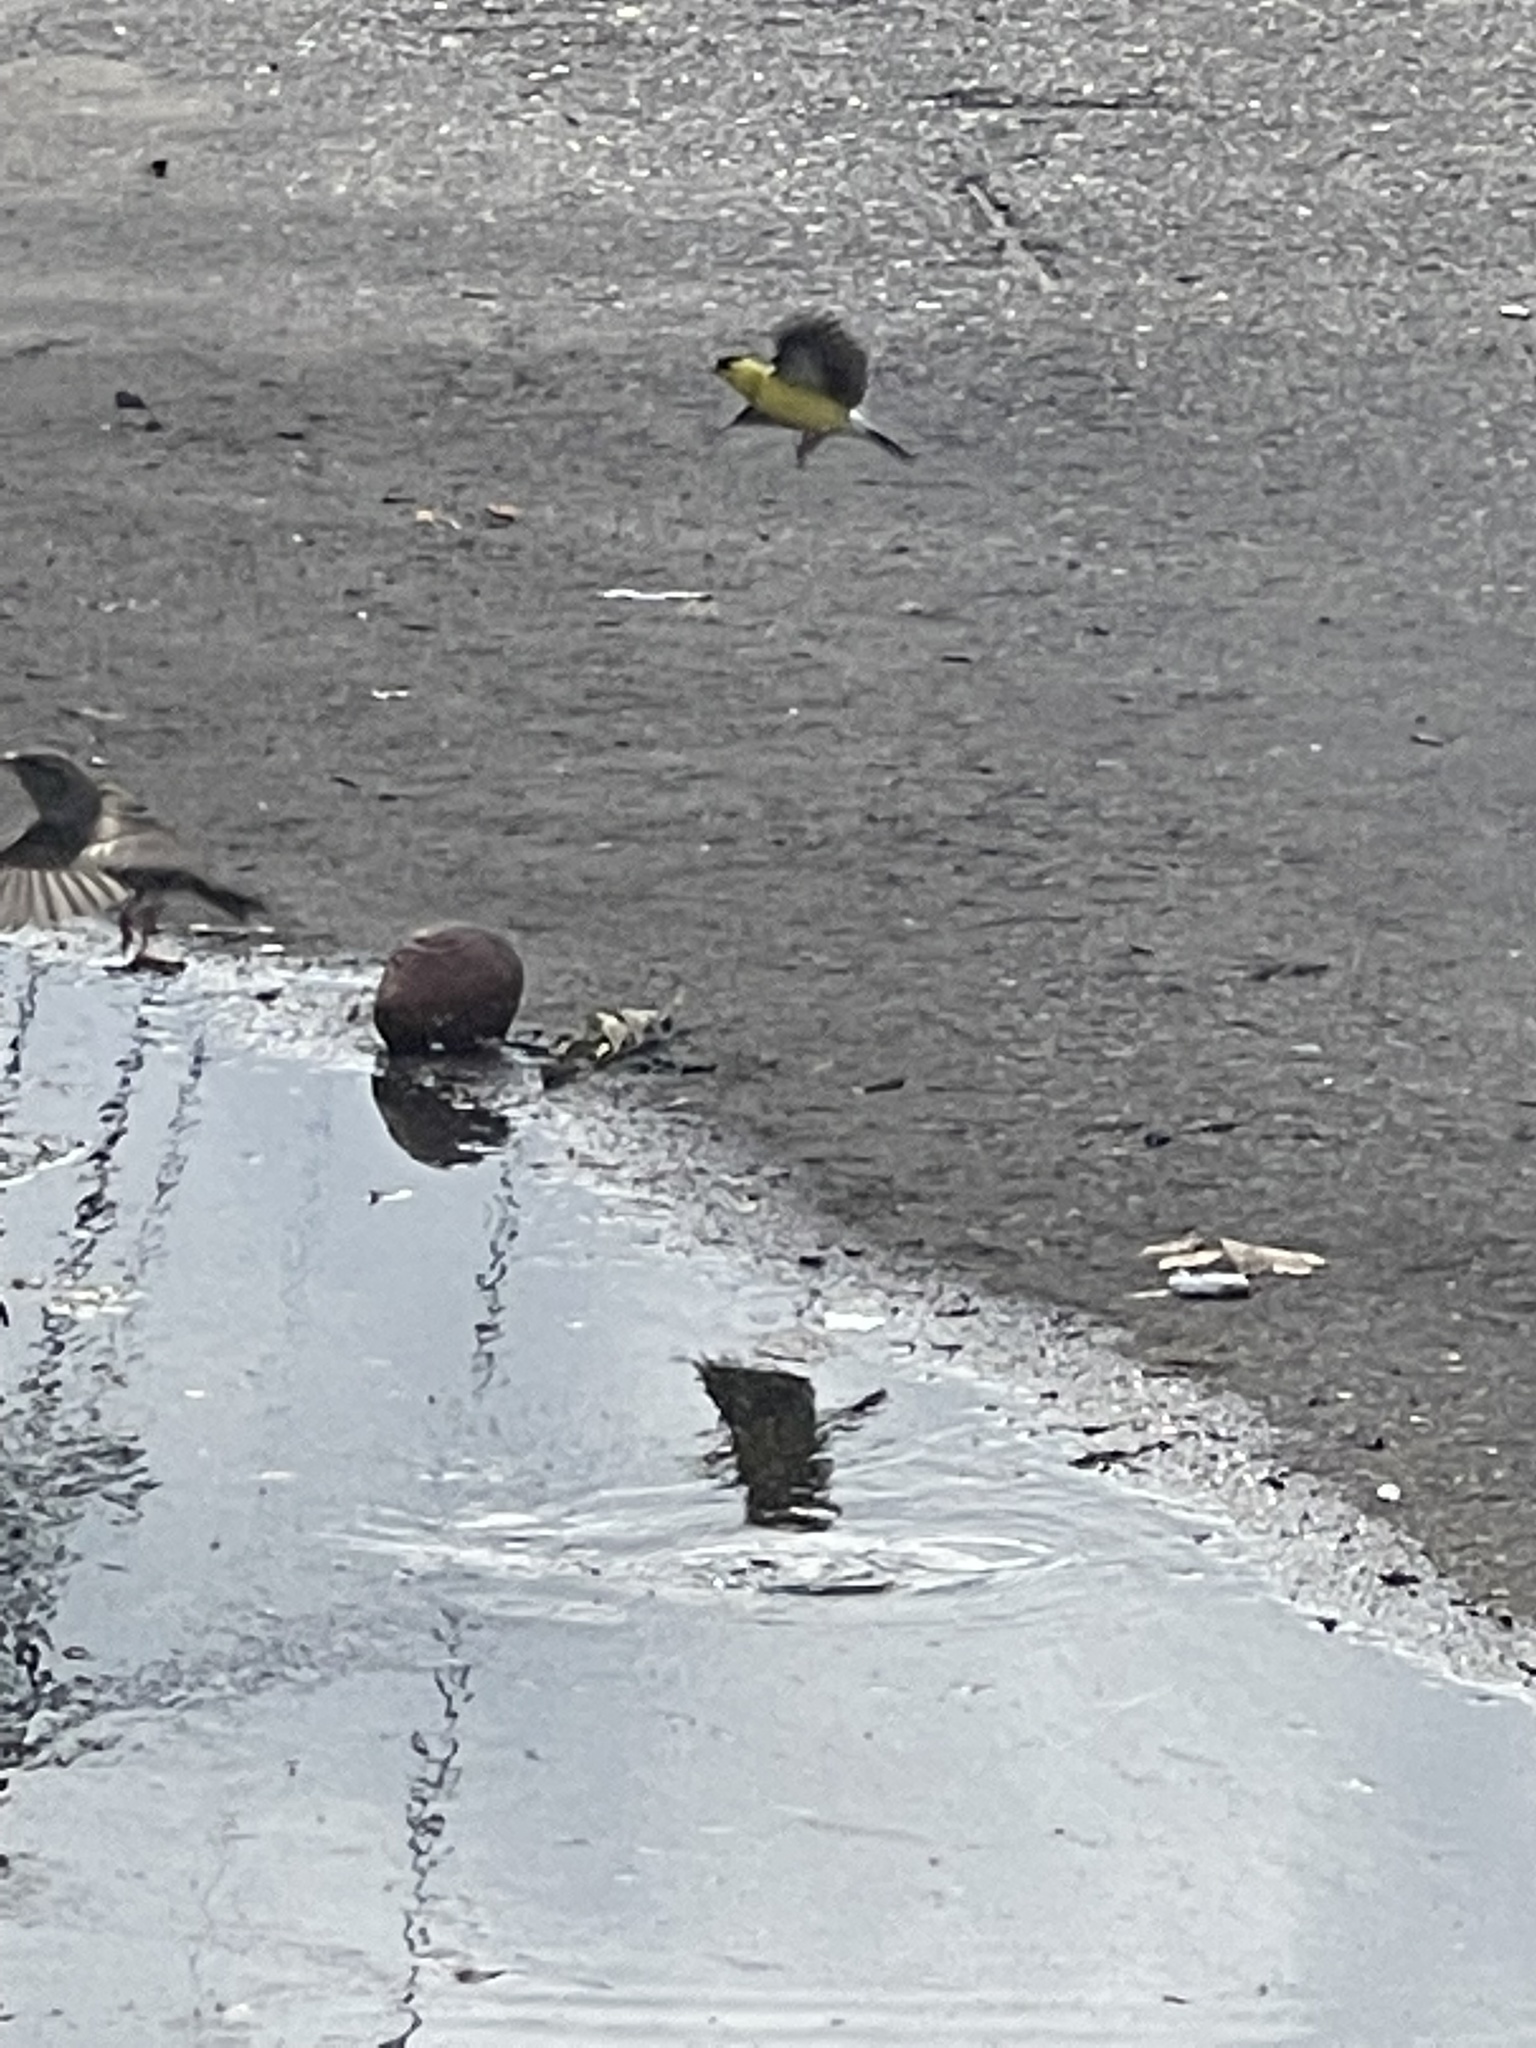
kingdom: Animalia
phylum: Chordata
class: Aves
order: Passeriformes
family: Fringillidae
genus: Spinus
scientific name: Spinus tristis
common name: American goldfinch
